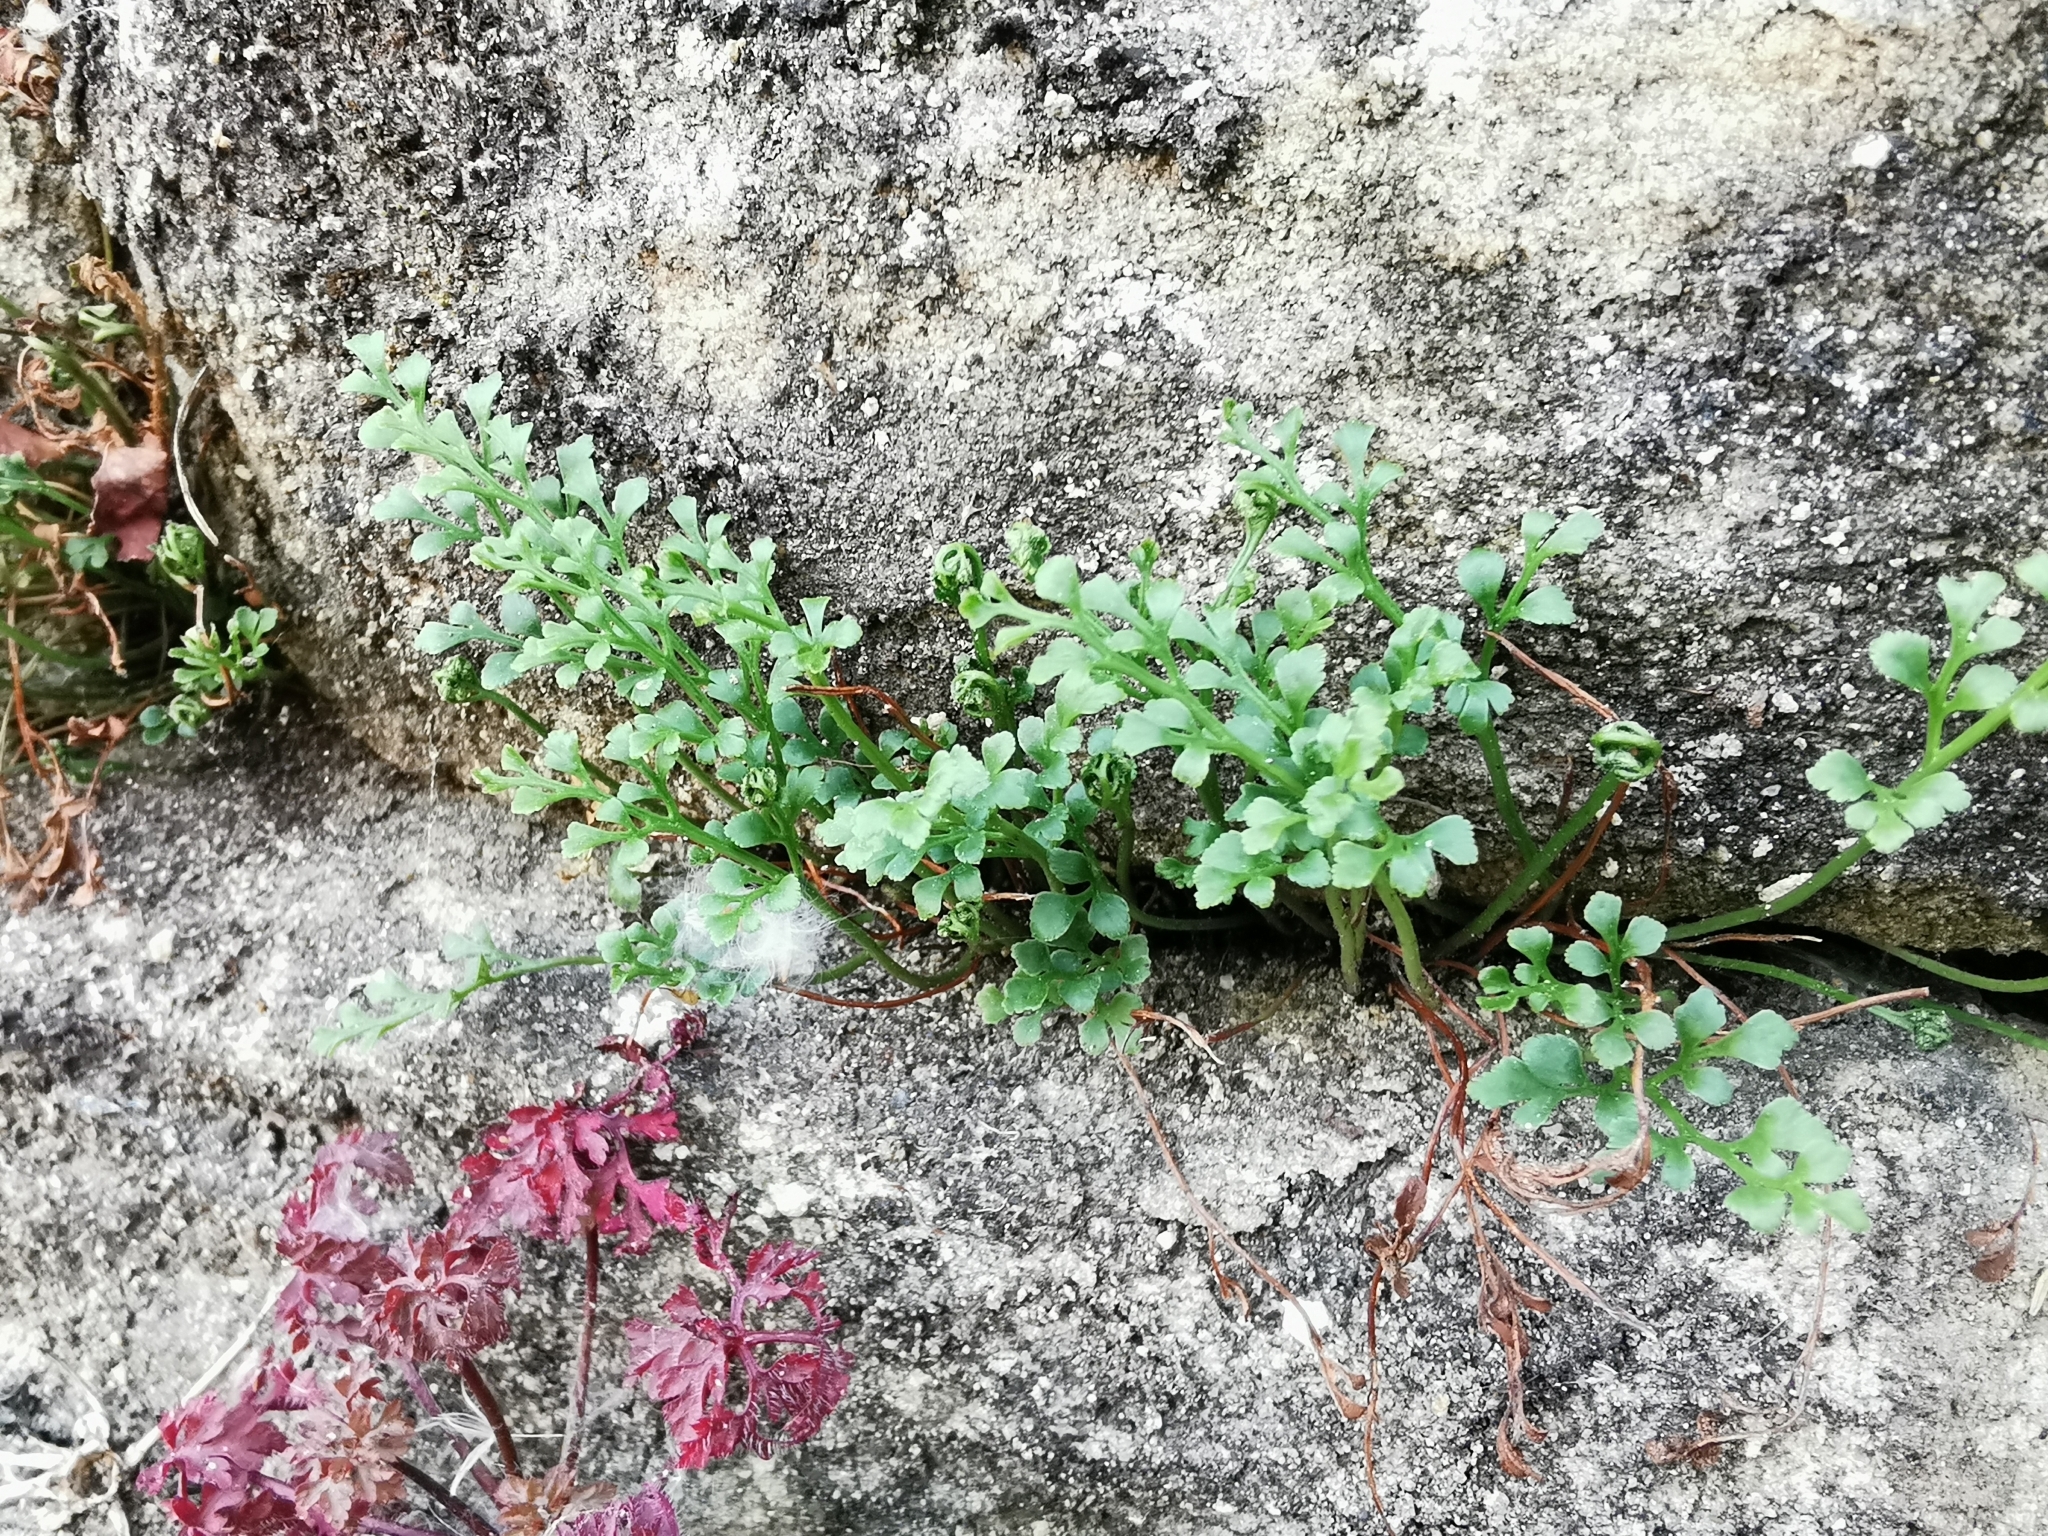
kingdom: Plantae
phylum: Tracheophyta
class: Polypodiopsida
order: Polypodiales
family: Aspleniaceae
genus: Asplenium
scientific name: Asplenium ruta-muraria
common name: Wall-rue
